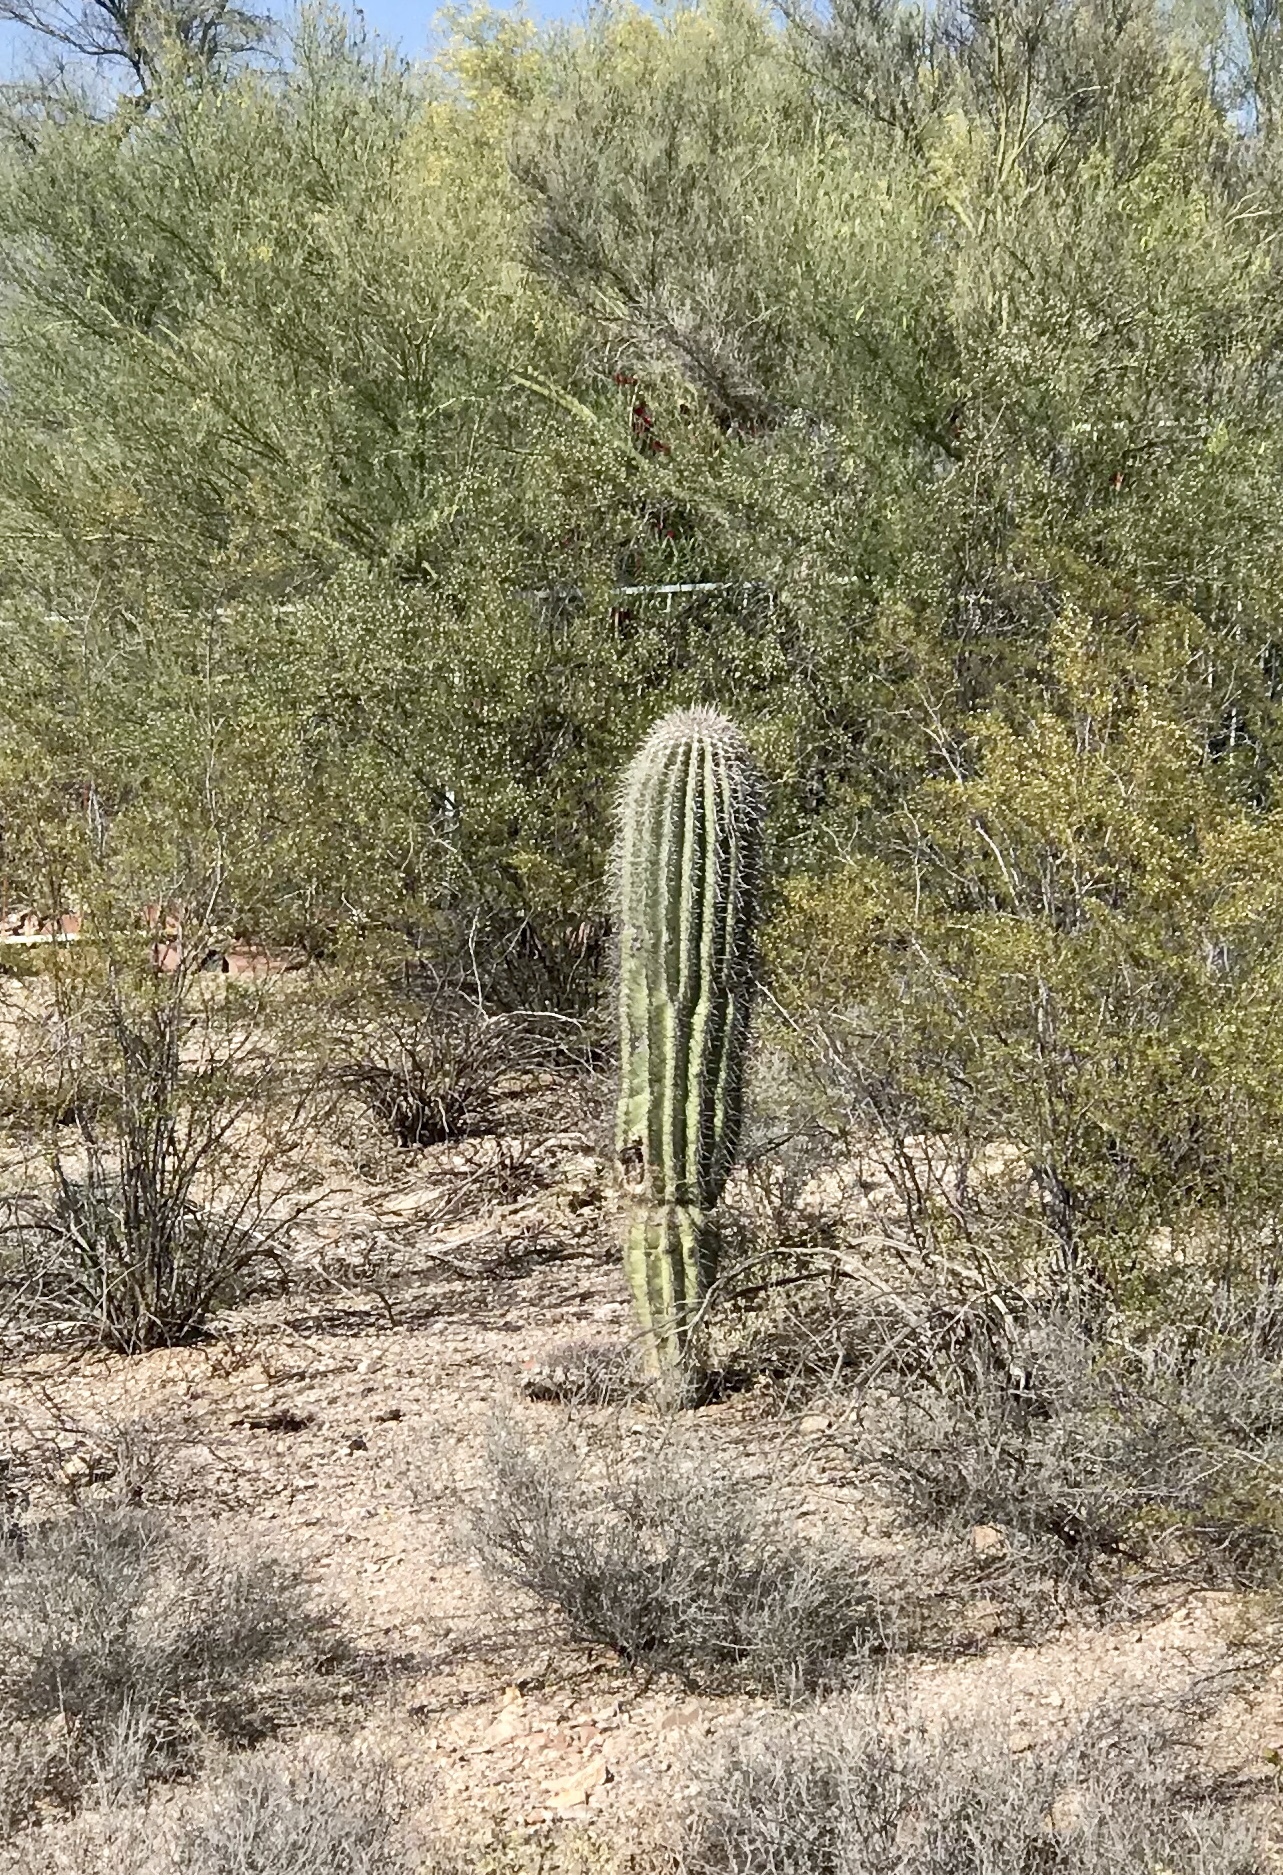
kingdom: Plantae
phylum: Tracheophyta
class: Magnoliopsida
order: Caryophyllales
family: Cactaceae
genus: Carnegiea
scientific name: Carnegiea gigantea
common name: Saguaro
